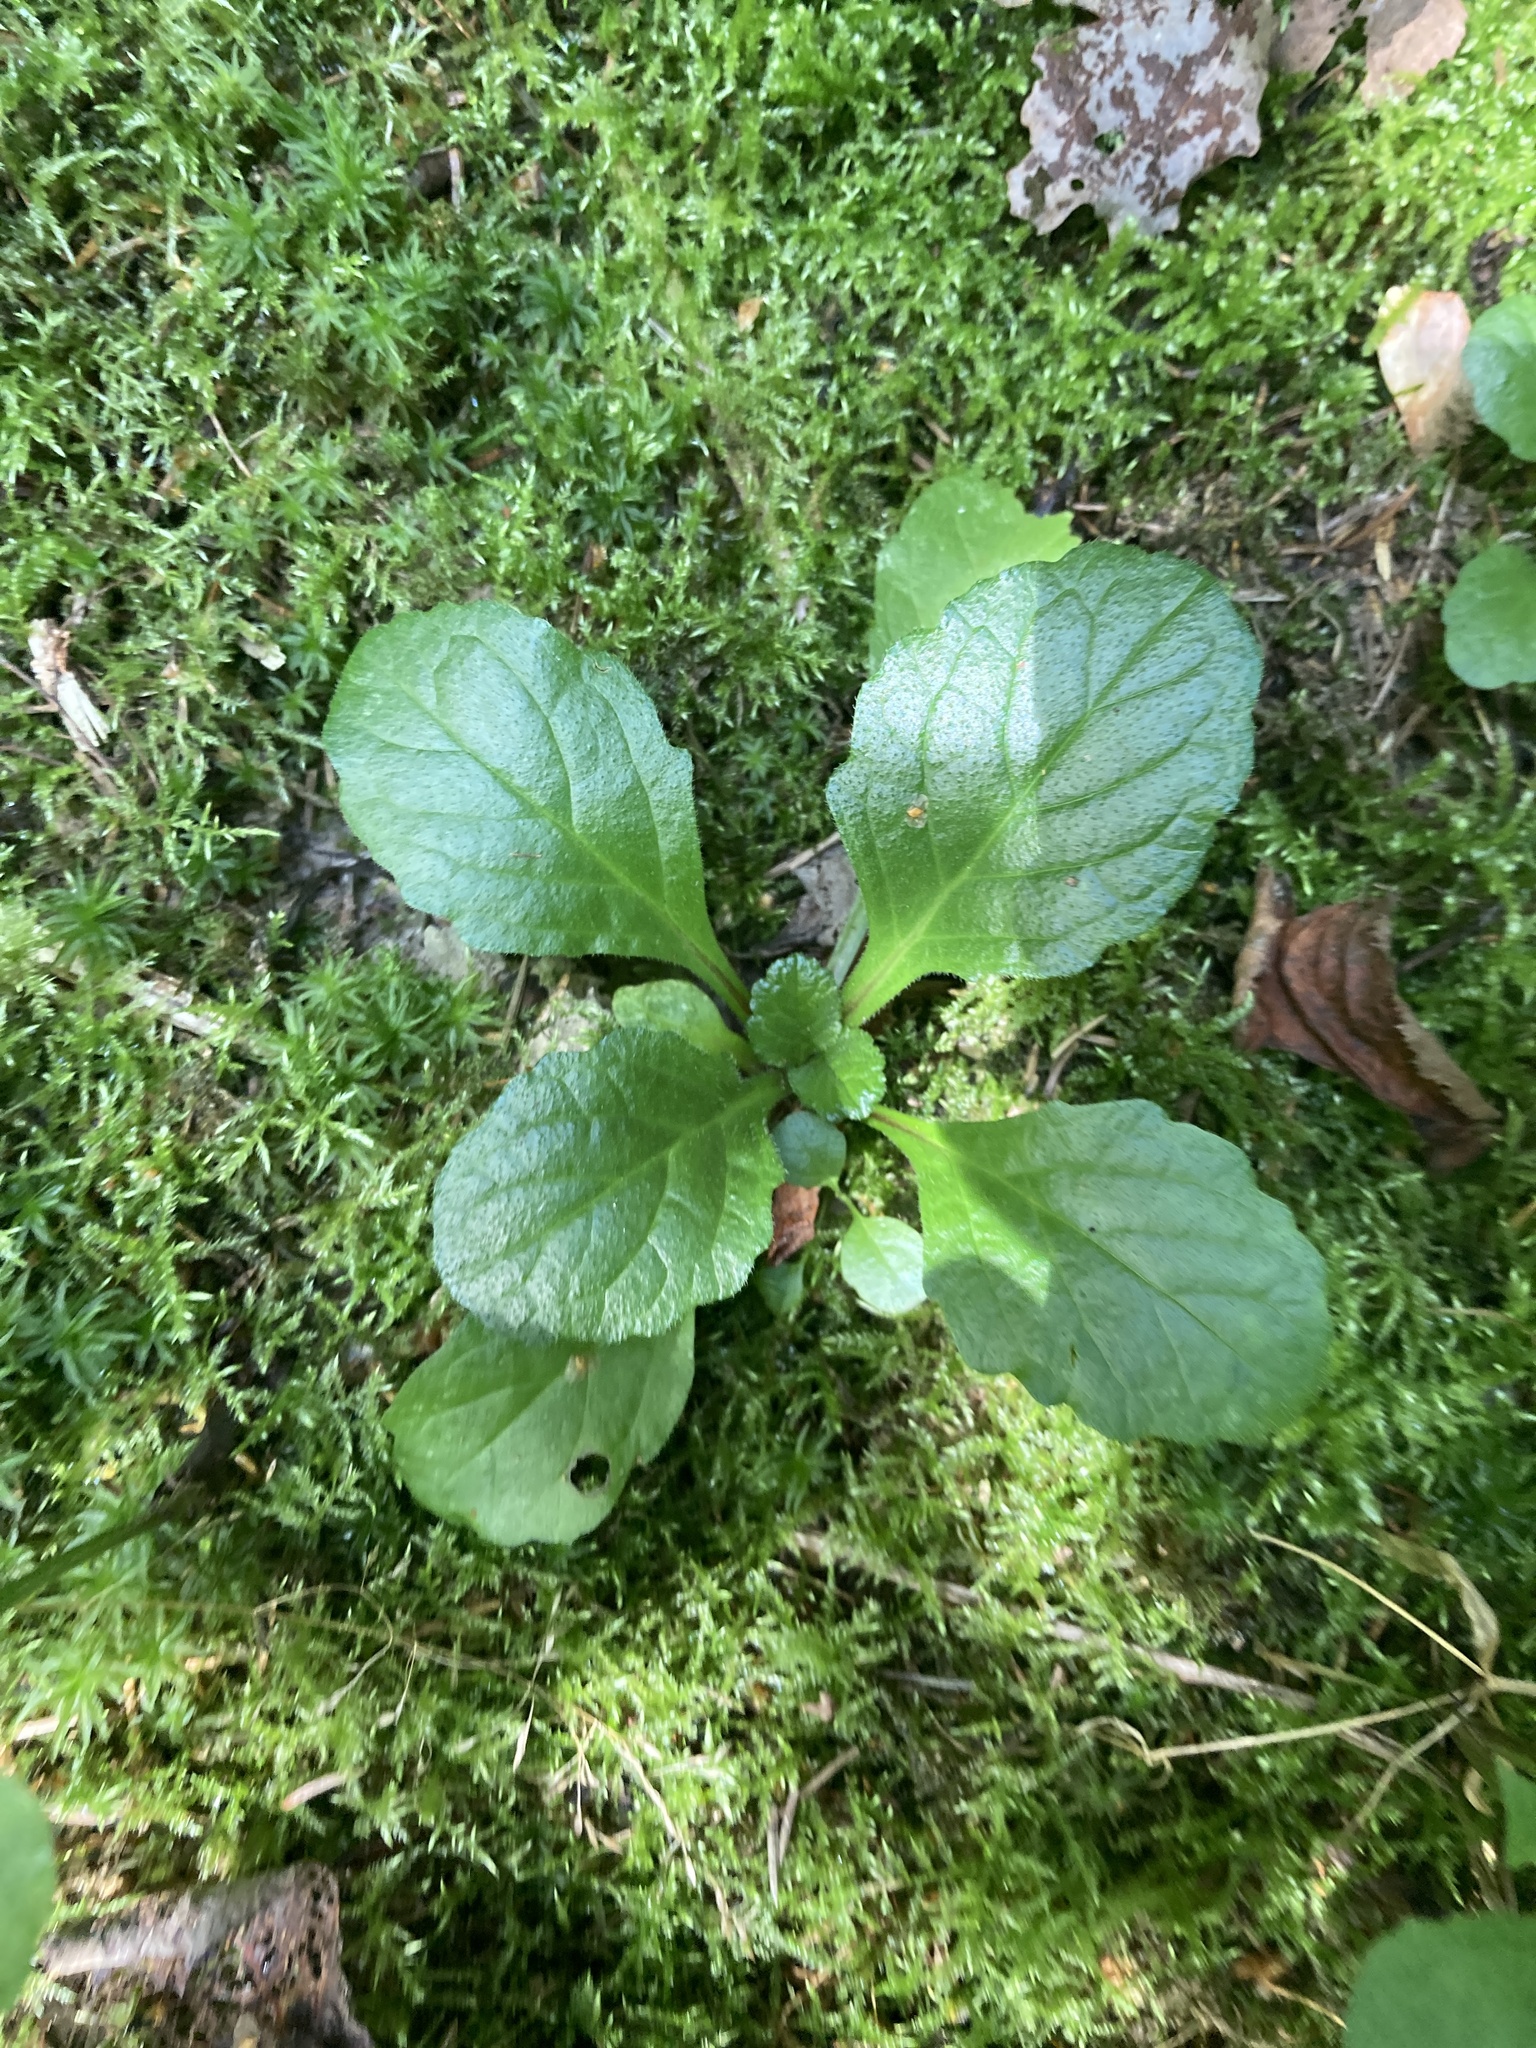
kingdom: Plantae
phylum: Tracheophyta
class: Magnoliopsida
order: Lamiales
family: Lamiaceae
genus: Ajuga
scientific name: Ajuga reptans
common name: Bugle
